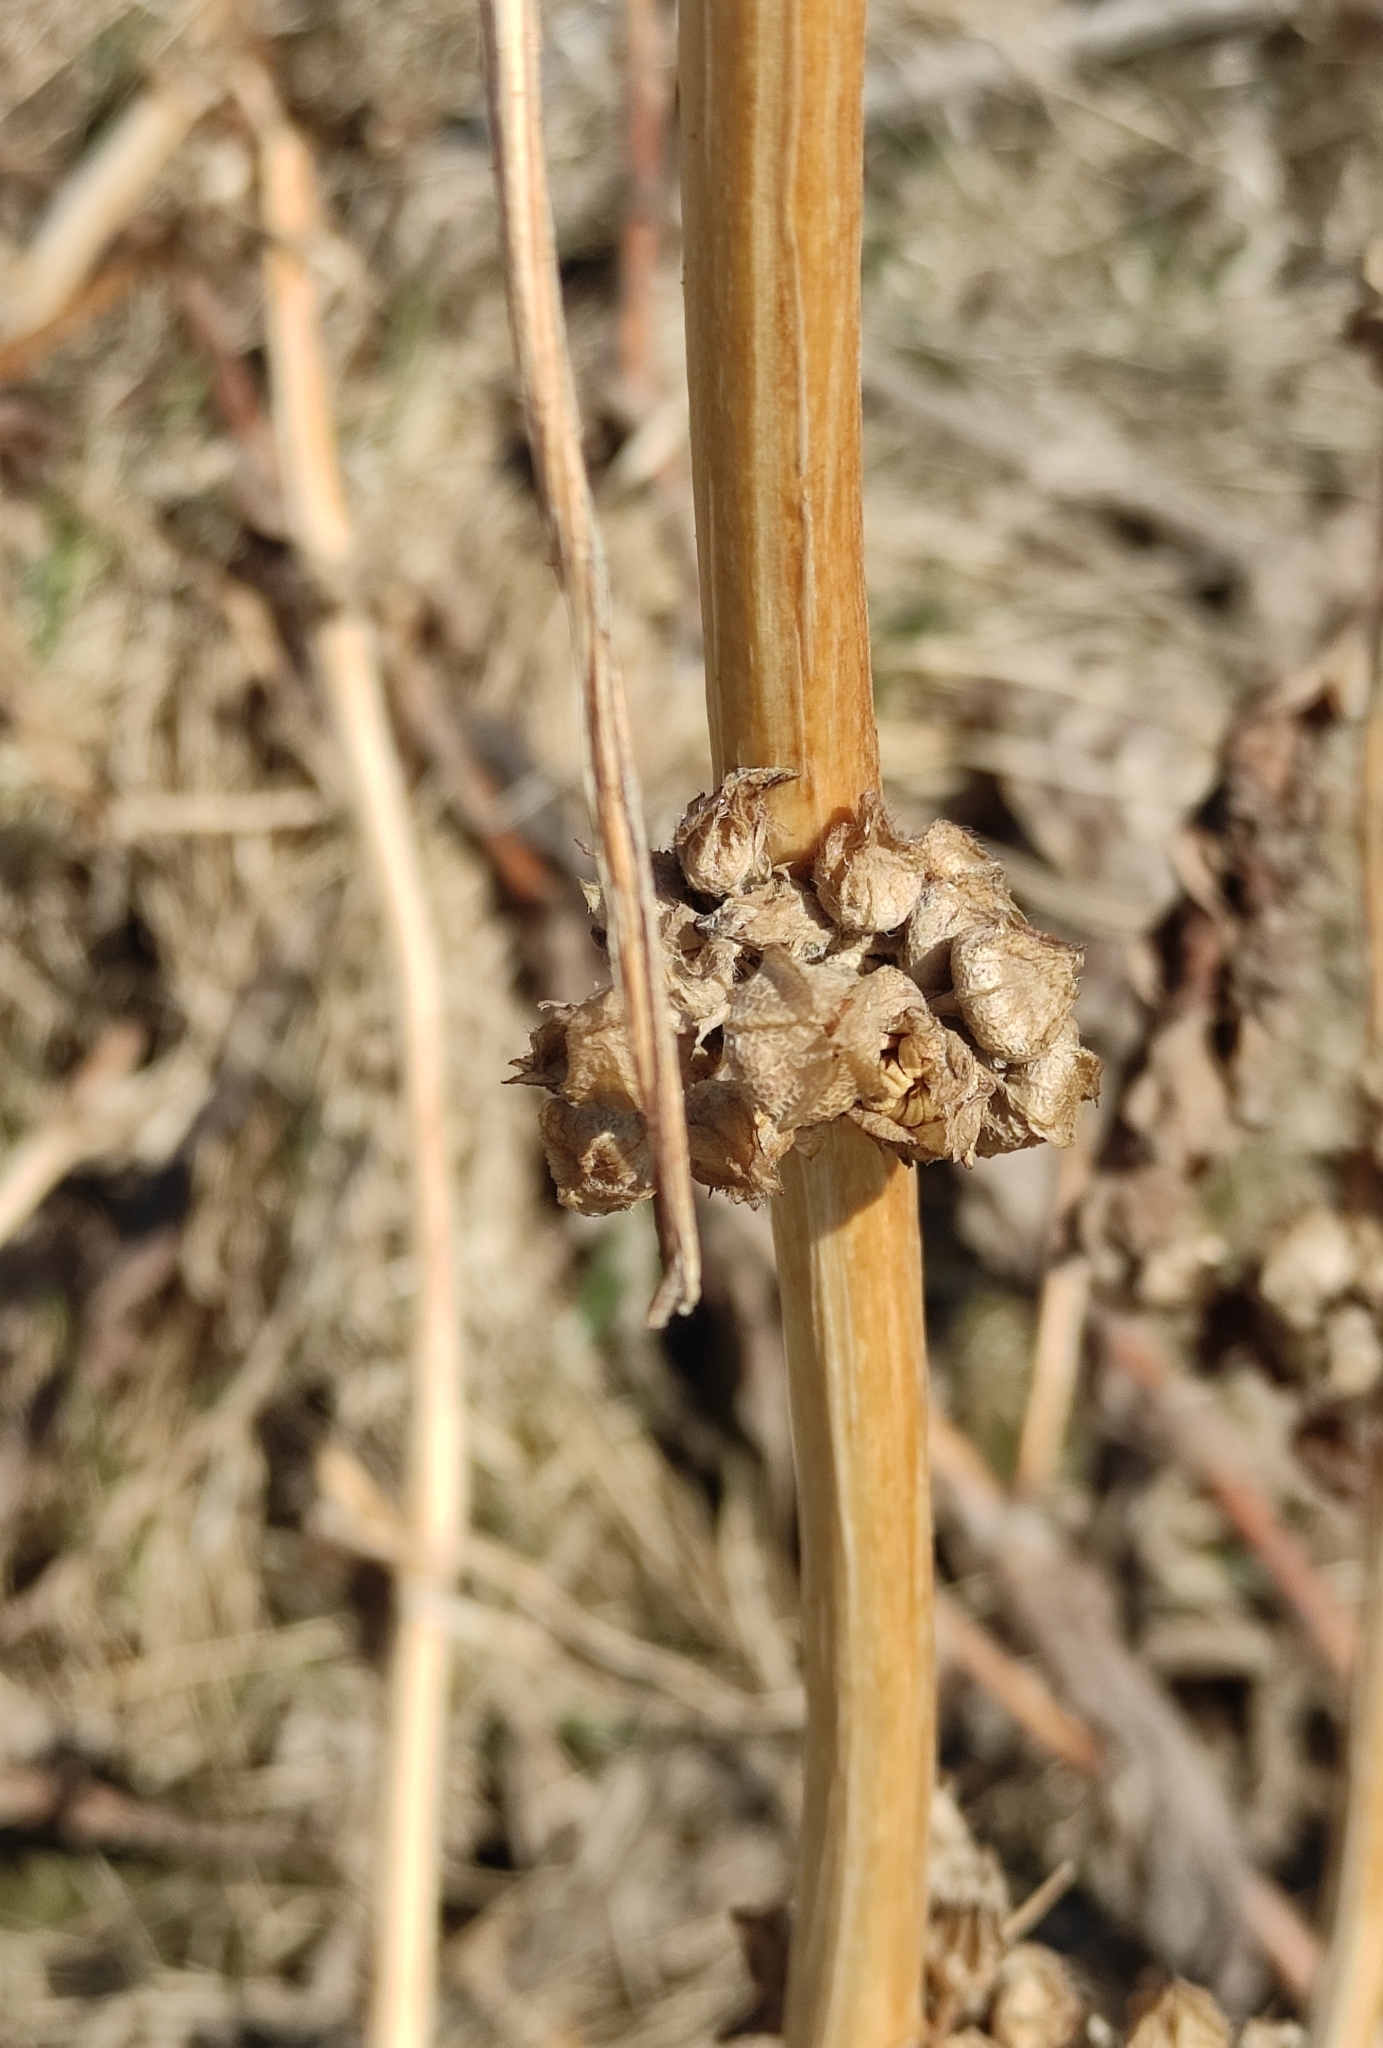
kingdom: Plantae
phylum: Tracheophyta
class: Magnoliopsida
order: Malvales
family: Malvaceae
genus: Malva
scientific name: Malva verticillata
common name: Chinese mallow
